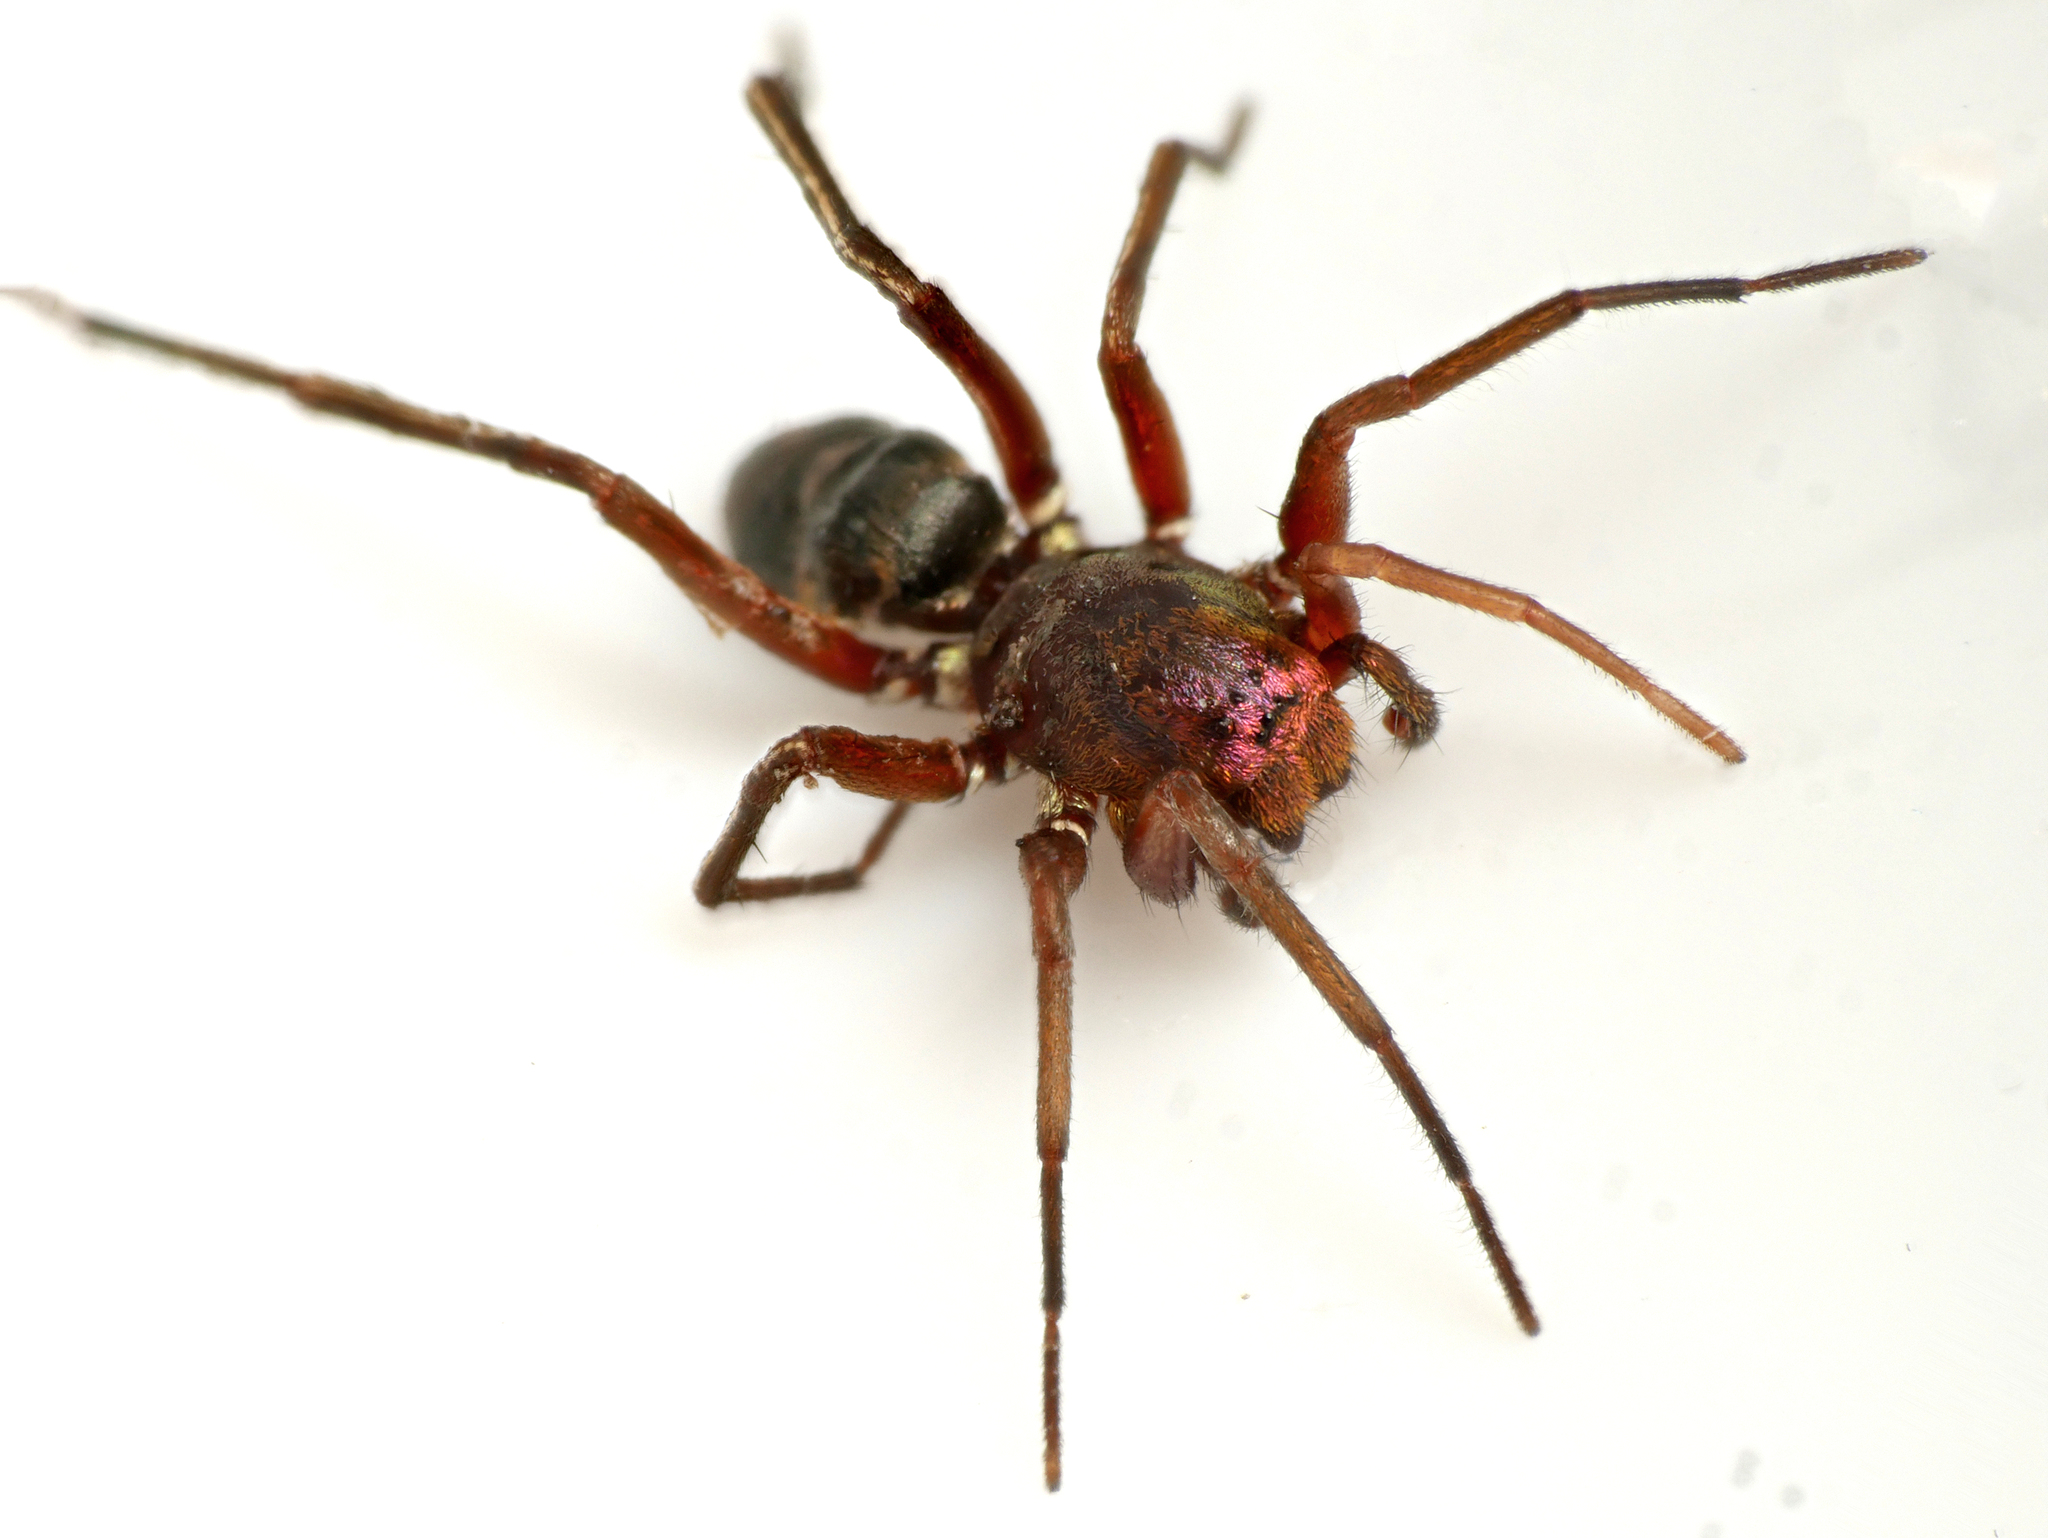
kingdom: Animalia
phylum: Arthropoda
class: Arachnida
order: Araneae
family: Gnaphosidae
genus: Micaria
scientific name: Micaria fulgens
